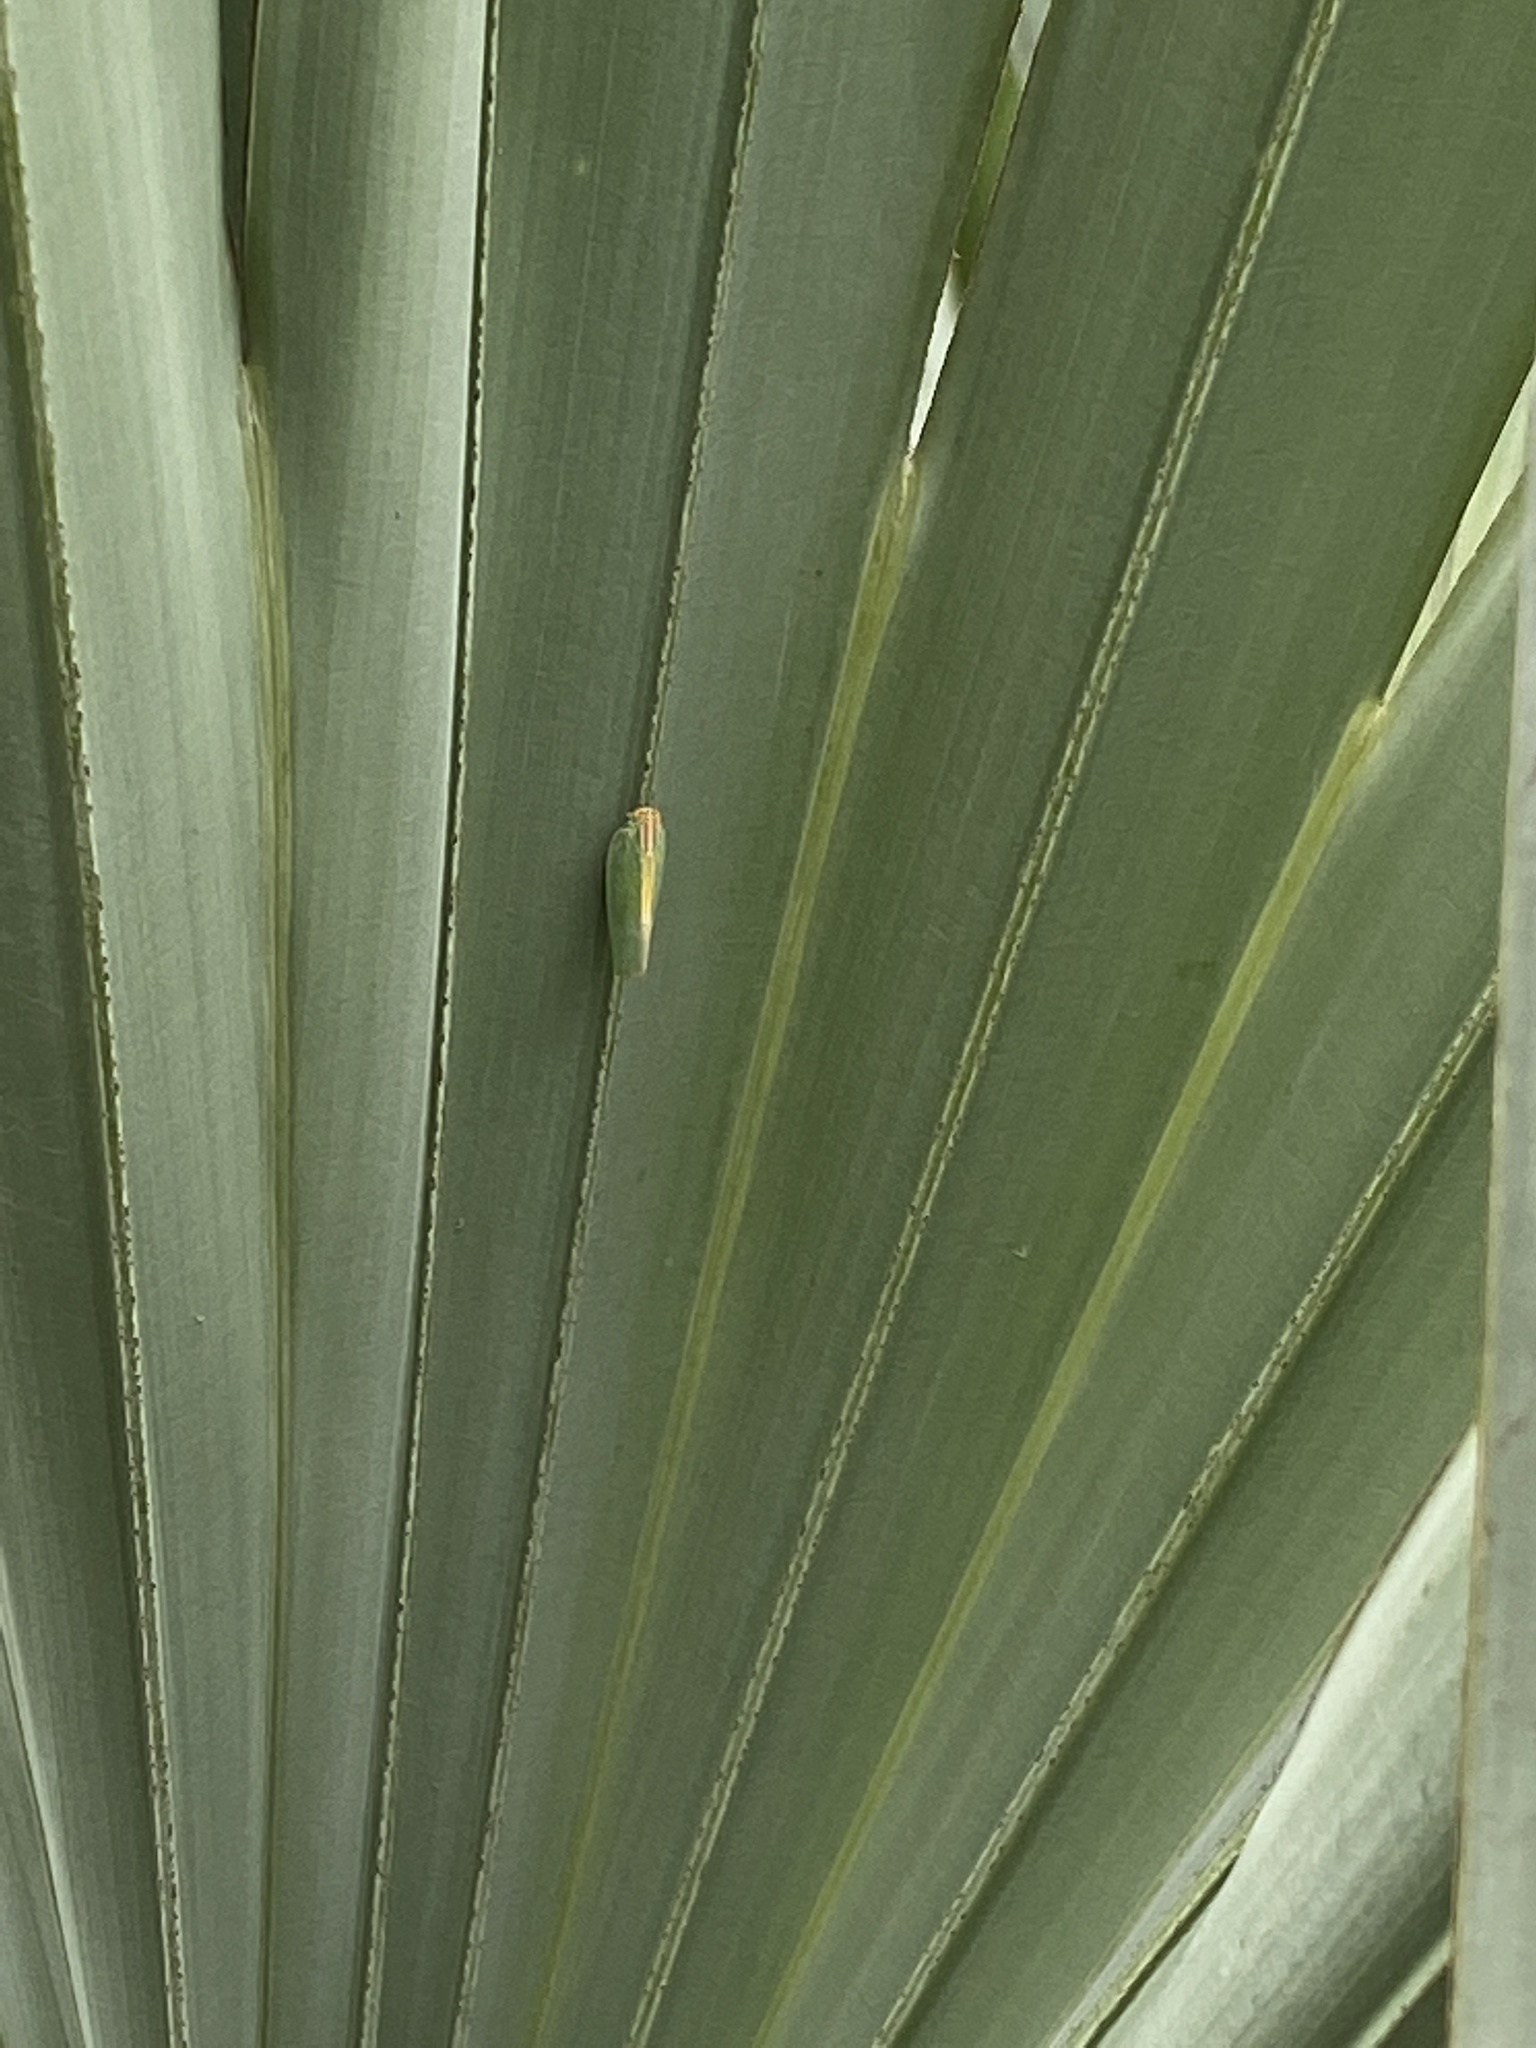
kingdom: Animalia
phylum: Arthropoda
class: Insecta
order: Hemiptera
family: Flatidae
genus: Ormenaria
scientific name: Ormenaria rufifascia
